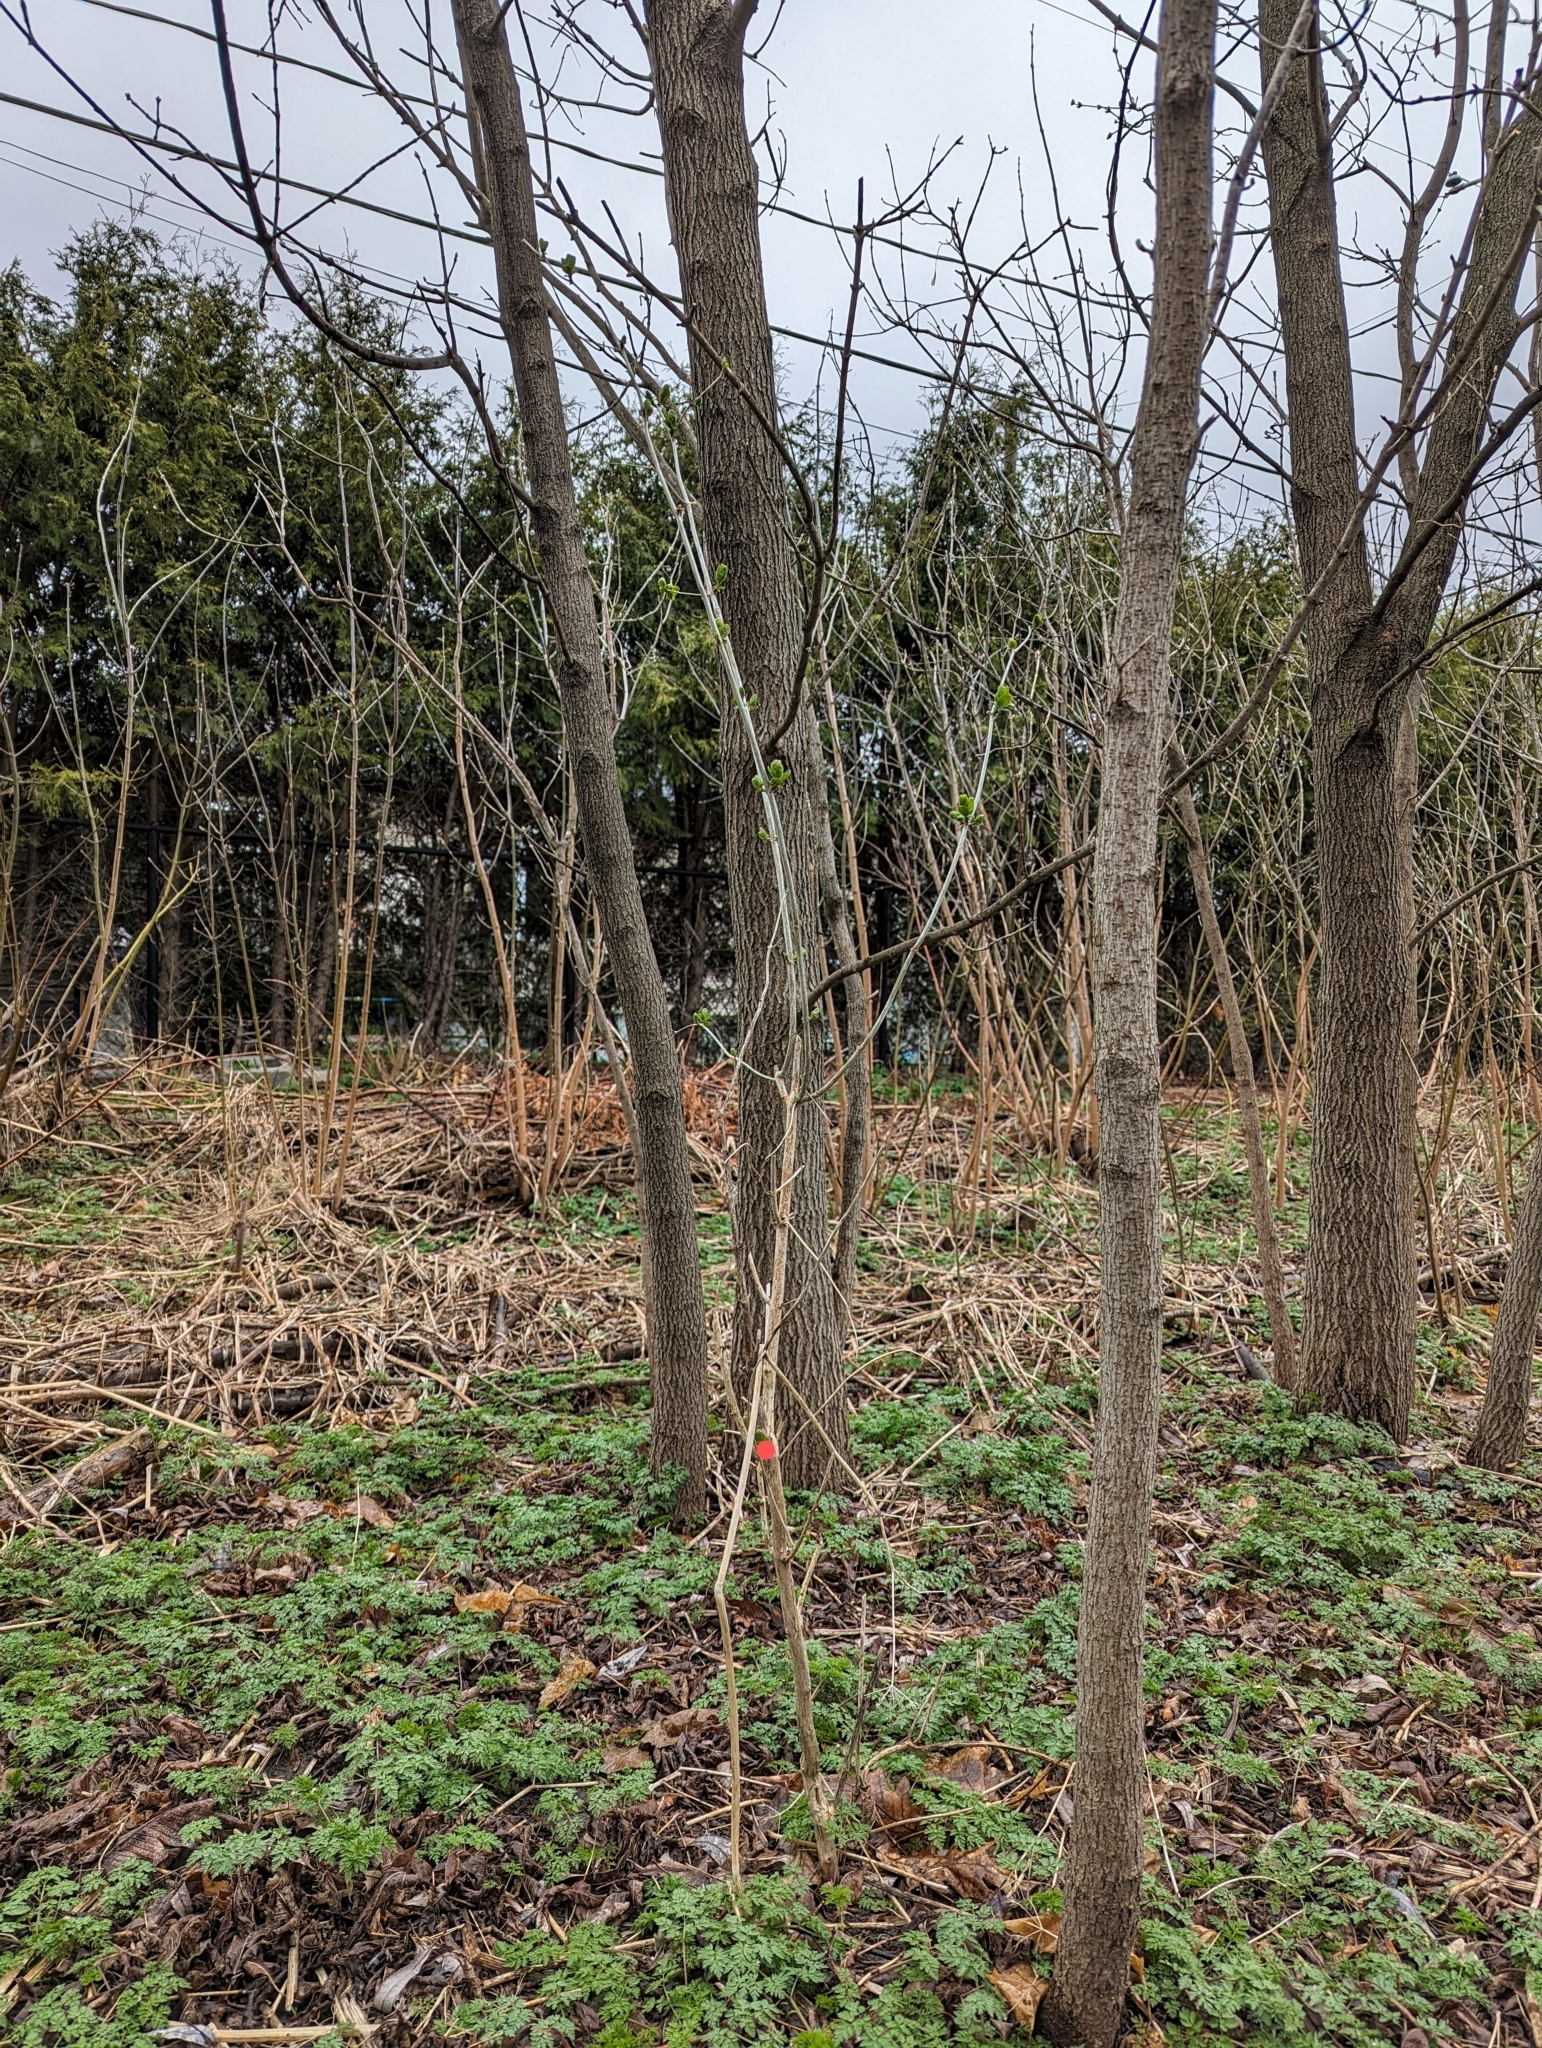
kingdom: Plantae
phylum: Tracheophyta
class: Magnoliopsida
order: Dipsacales
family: Caprifoliaceae
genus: Lonicera
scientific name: Lonicera
